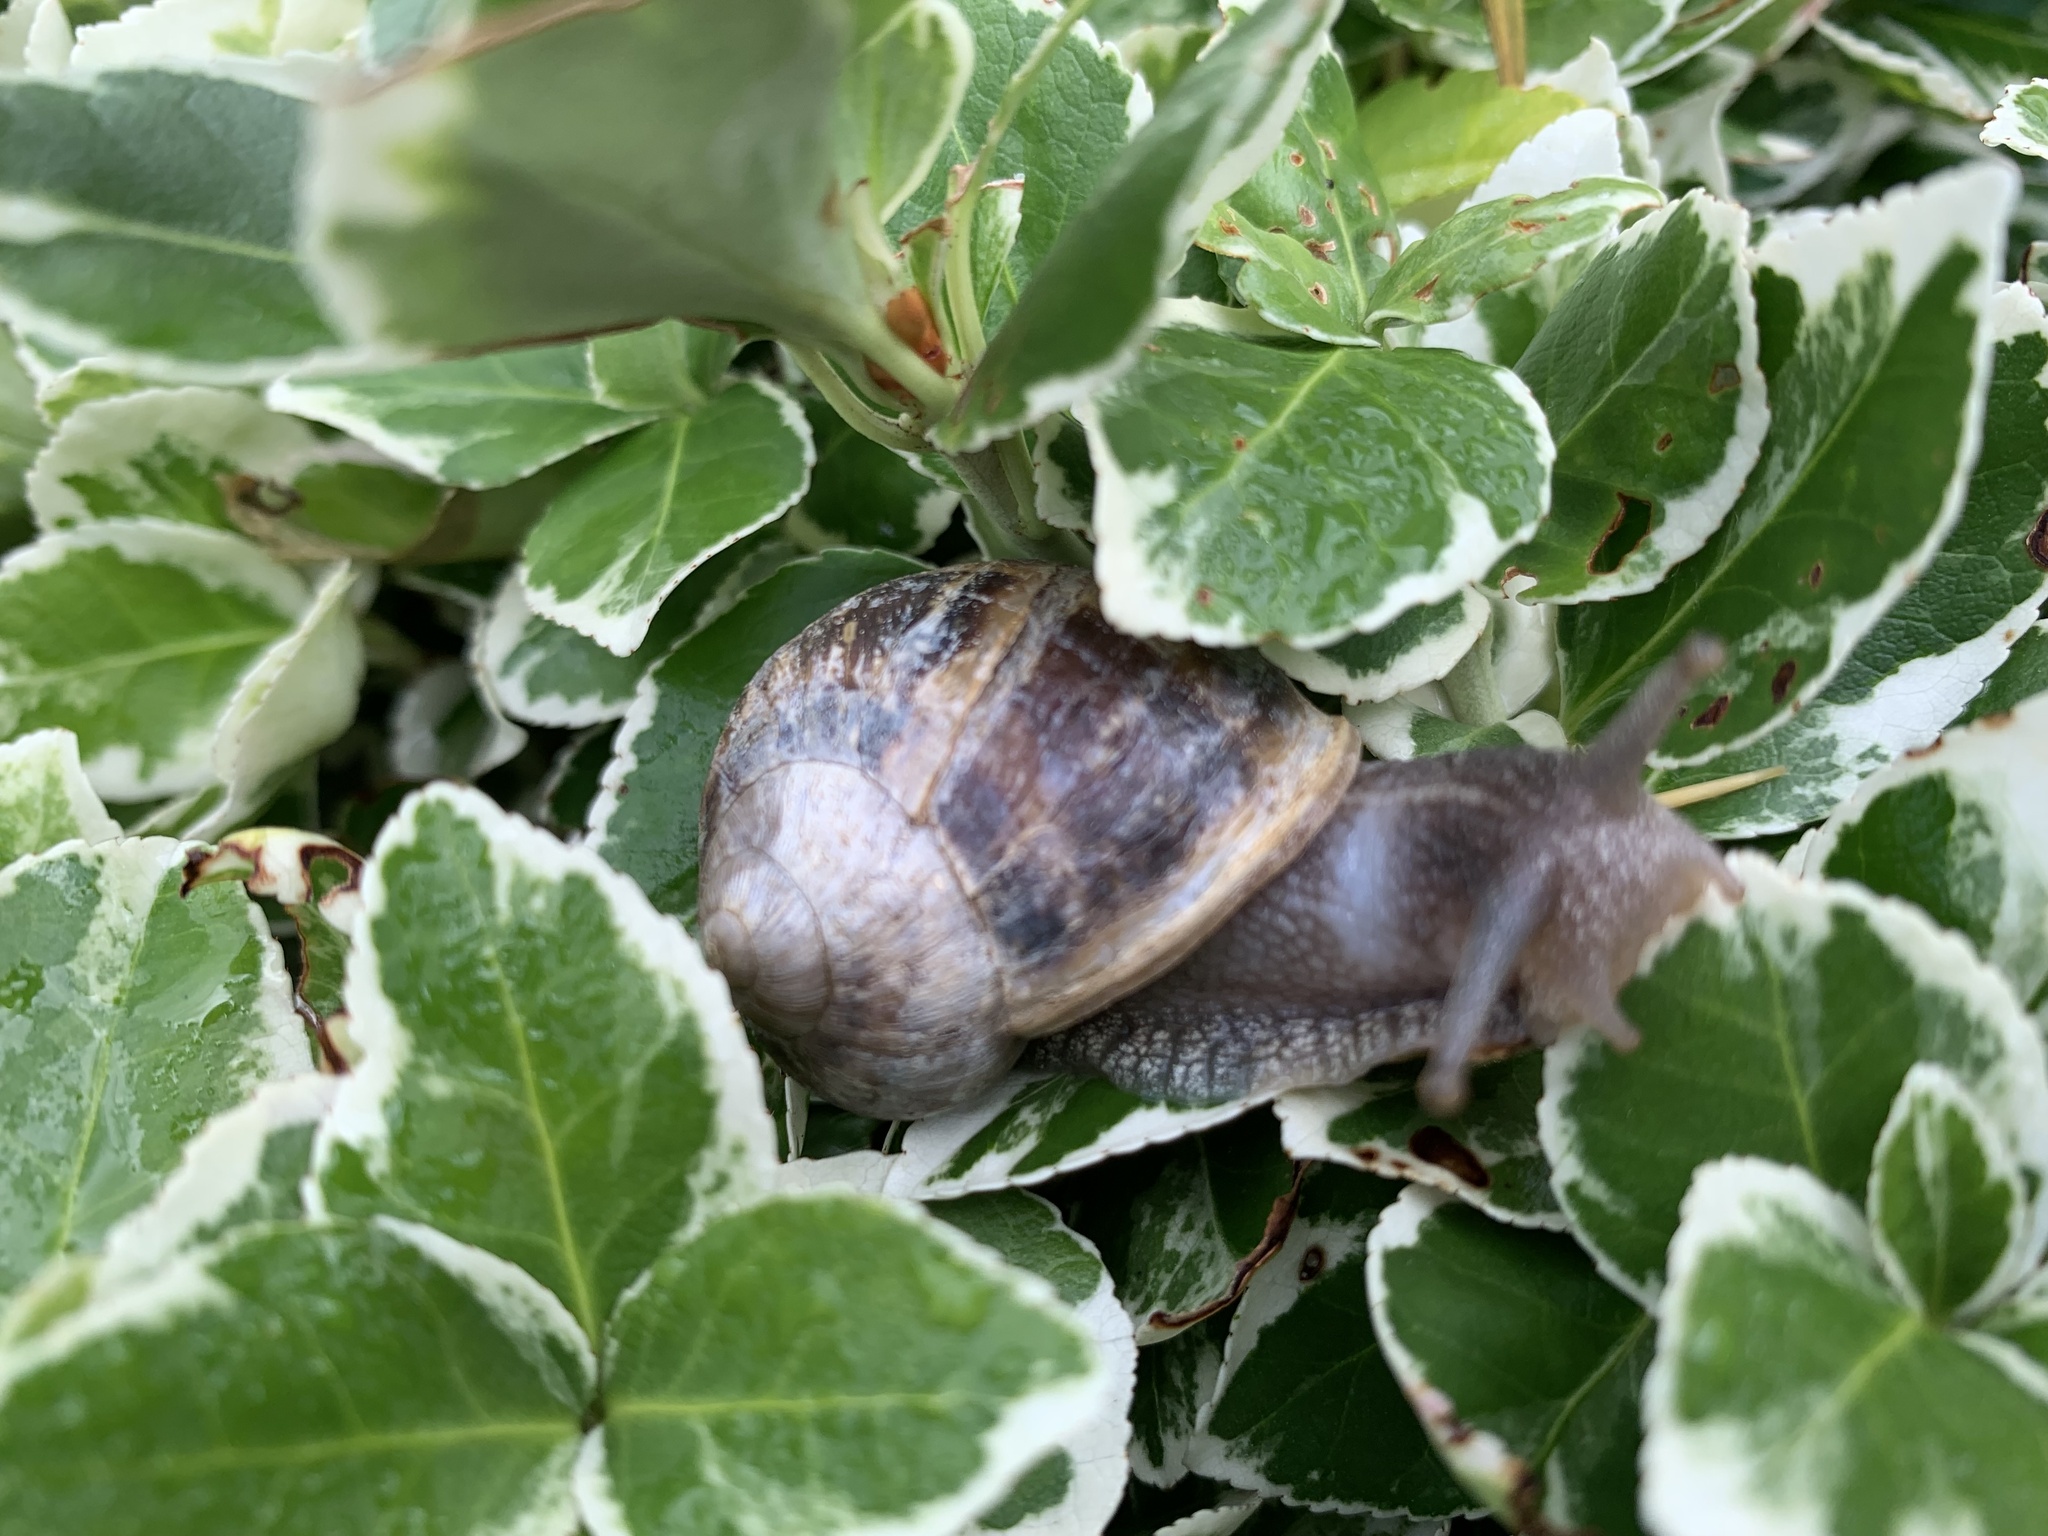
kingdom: Animalia
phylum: Mollusca
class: Gastropoda
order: Stylommatophora
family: Helicidae
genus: Cornu
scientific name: Cornu aspersum
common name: Brown garden snail
